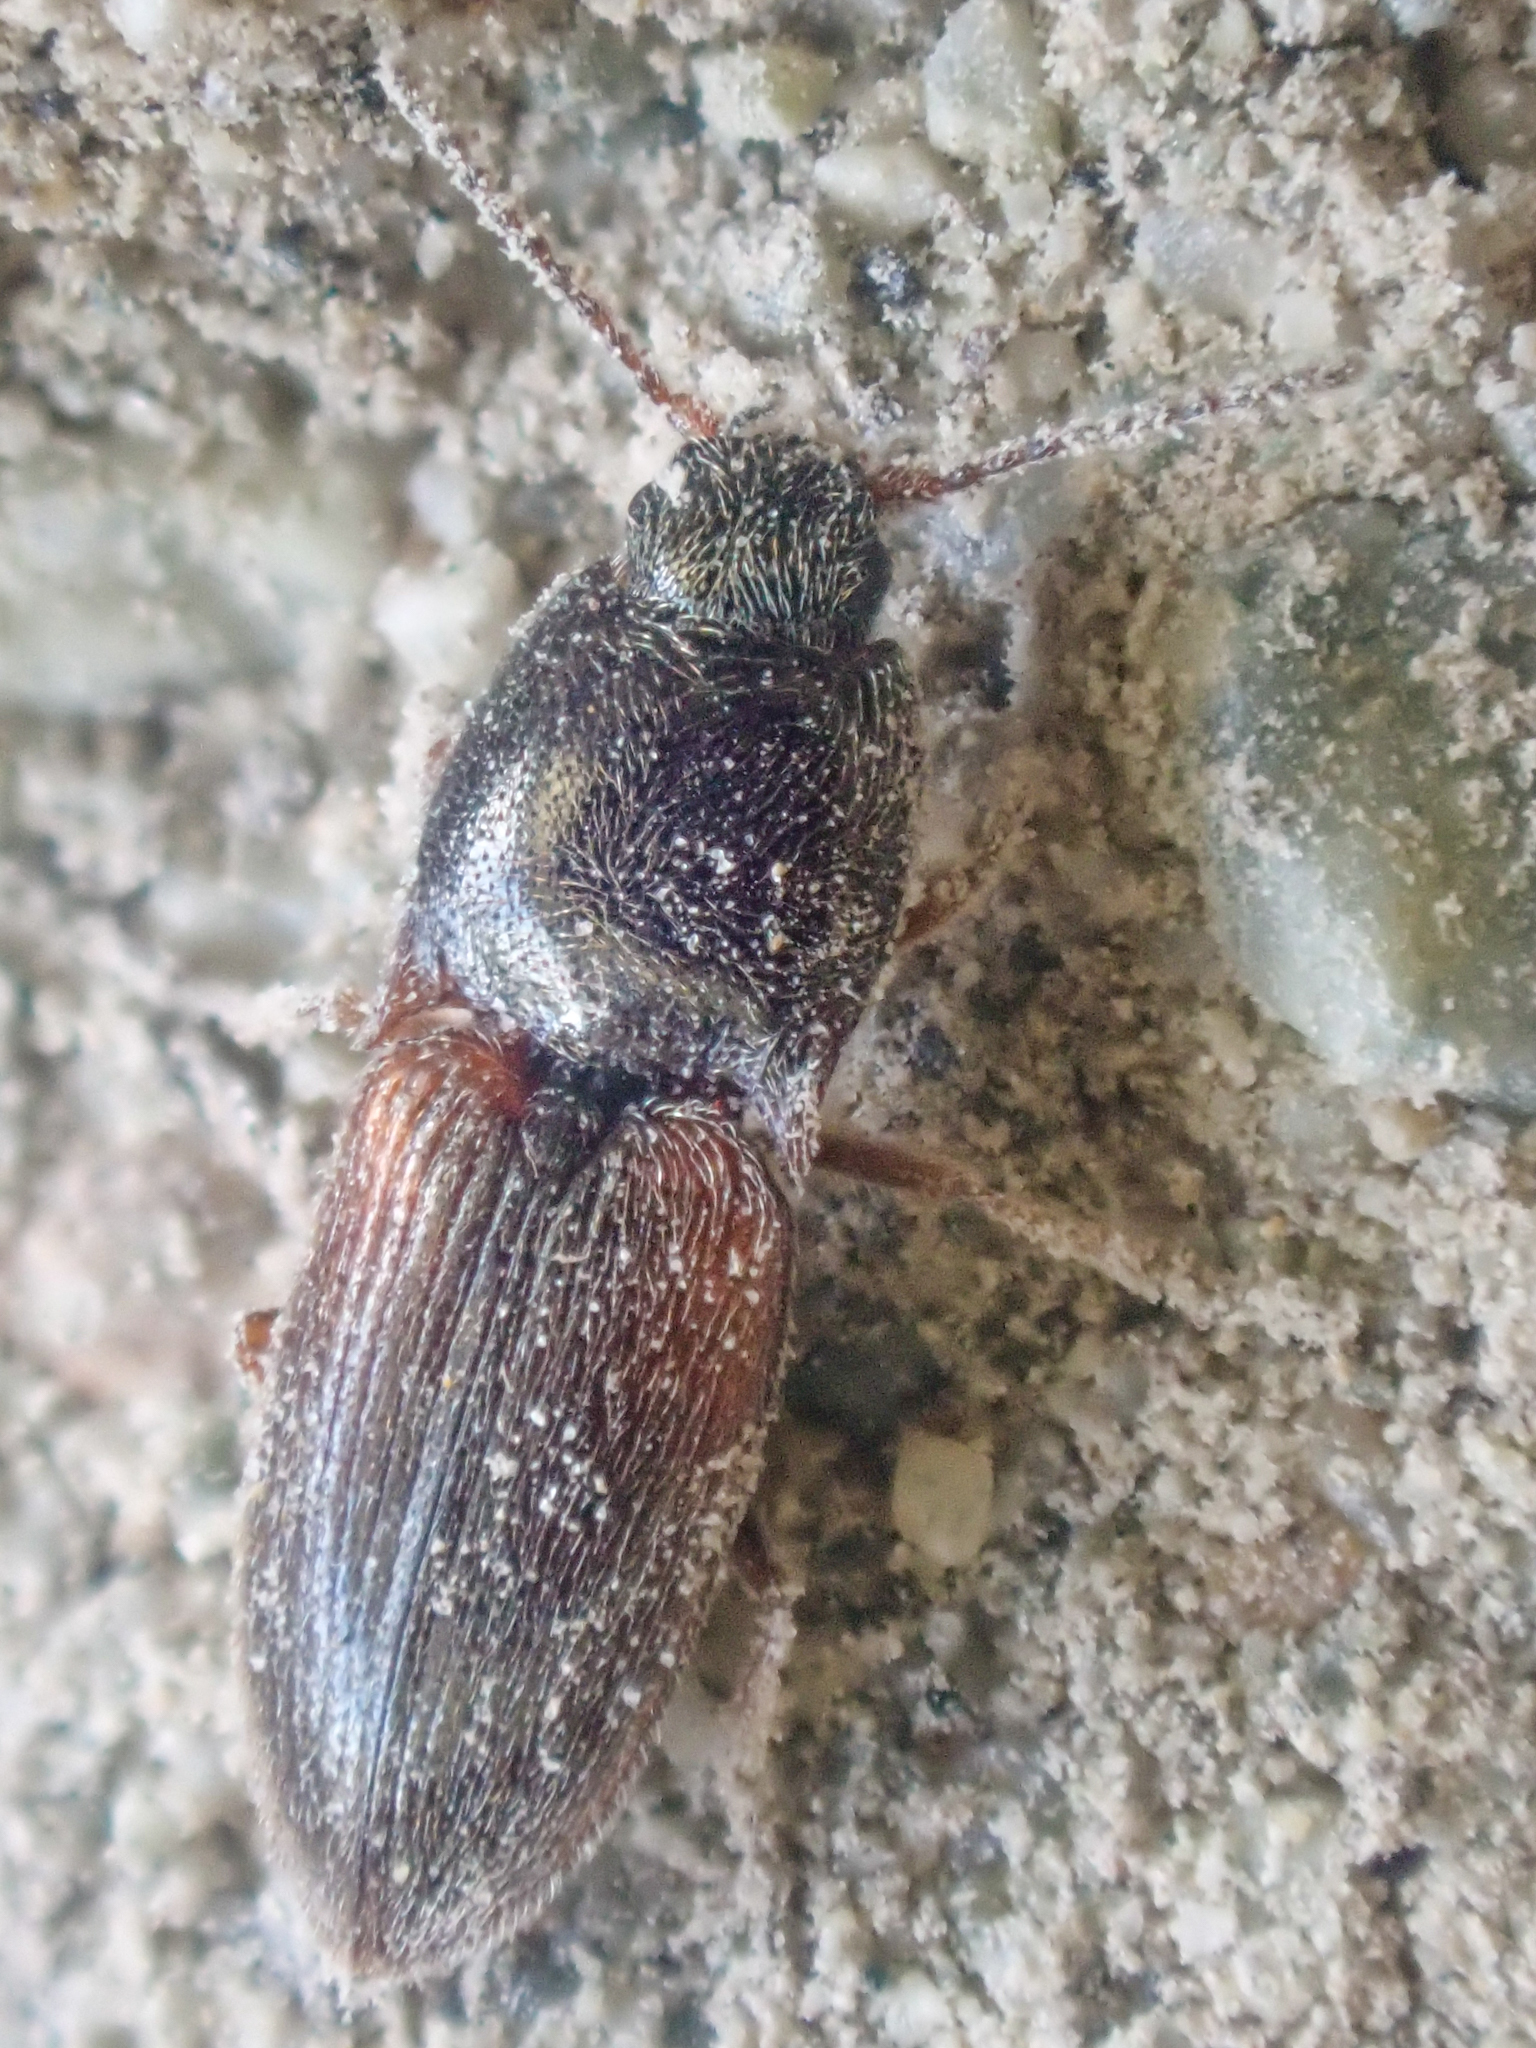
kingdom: Animalia
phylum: Arthropoda
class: Insecta
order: Coleoptera
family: Elateridae
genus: Hypnoidus
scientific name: Hypnoidus bicolor
